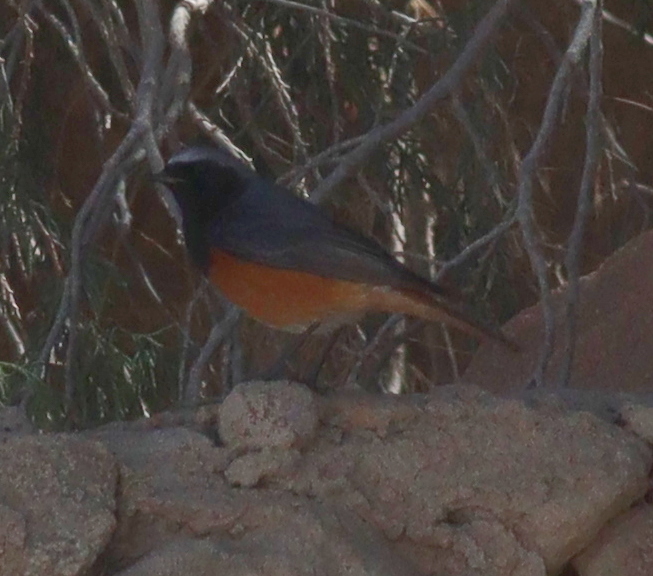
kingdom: Animalia
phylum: Chordata
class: Aves
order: Passeriformes
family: Muscicapidae
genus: Phoenicurus
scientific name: Phoenicurus ochruros
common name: Black redstart
